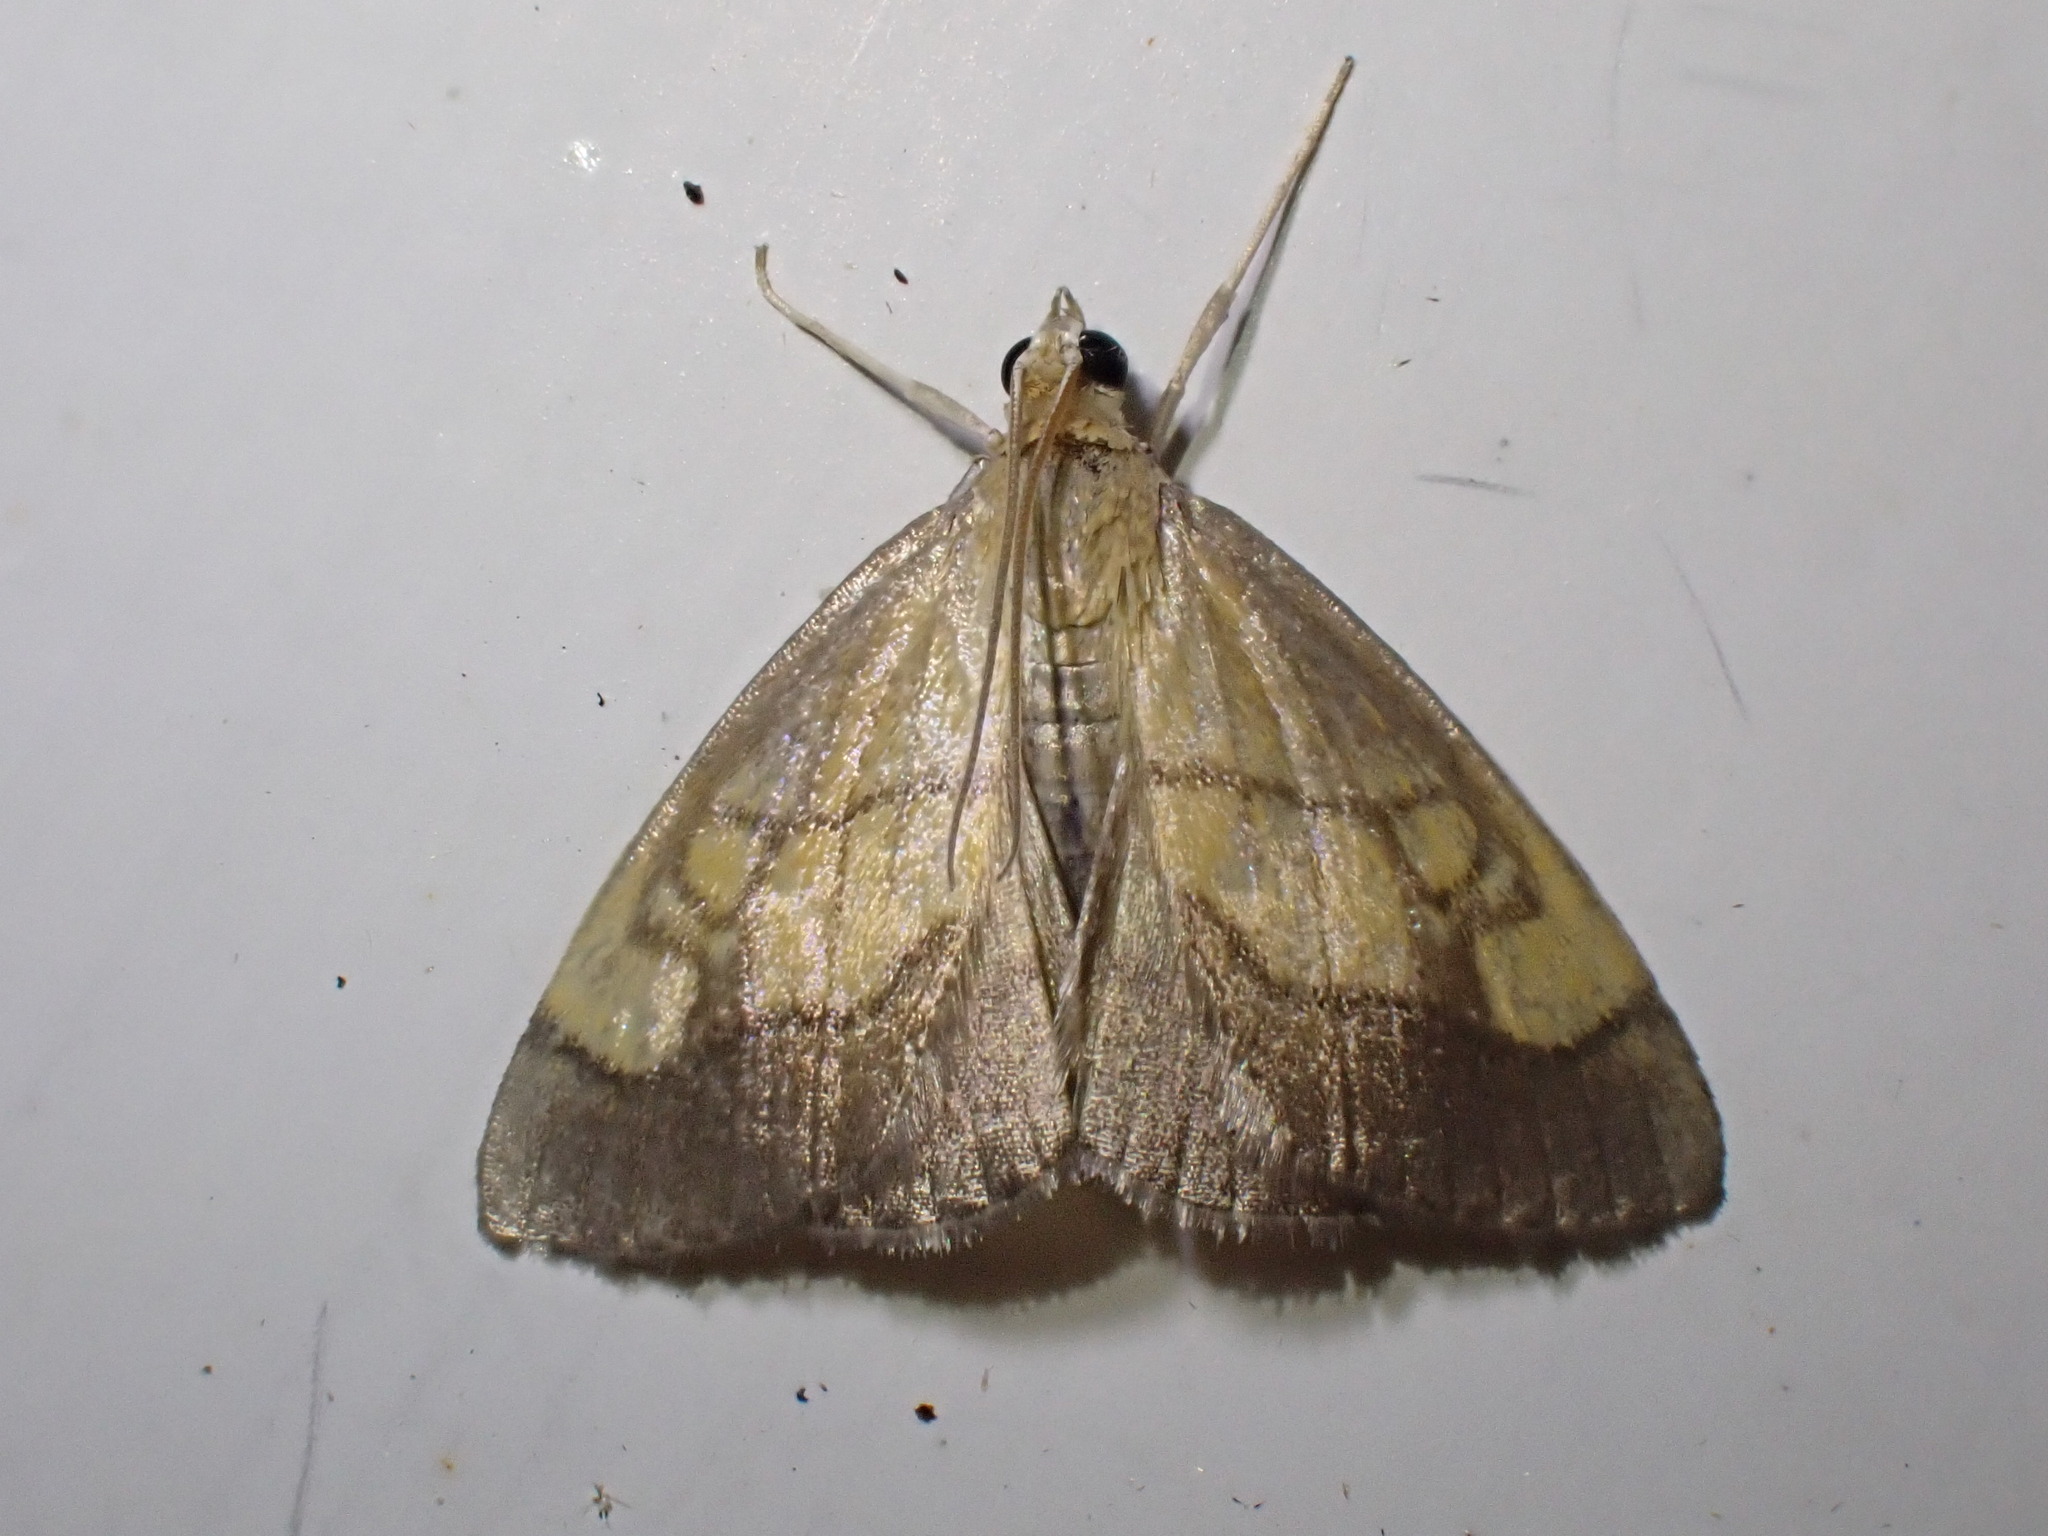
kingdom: Animalia
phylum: Arthropoda
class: Insecta
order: Lepidoptera
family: Crambidae
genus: Evergestis
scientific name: Evergestis limbata
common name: Dark bordered pearl
